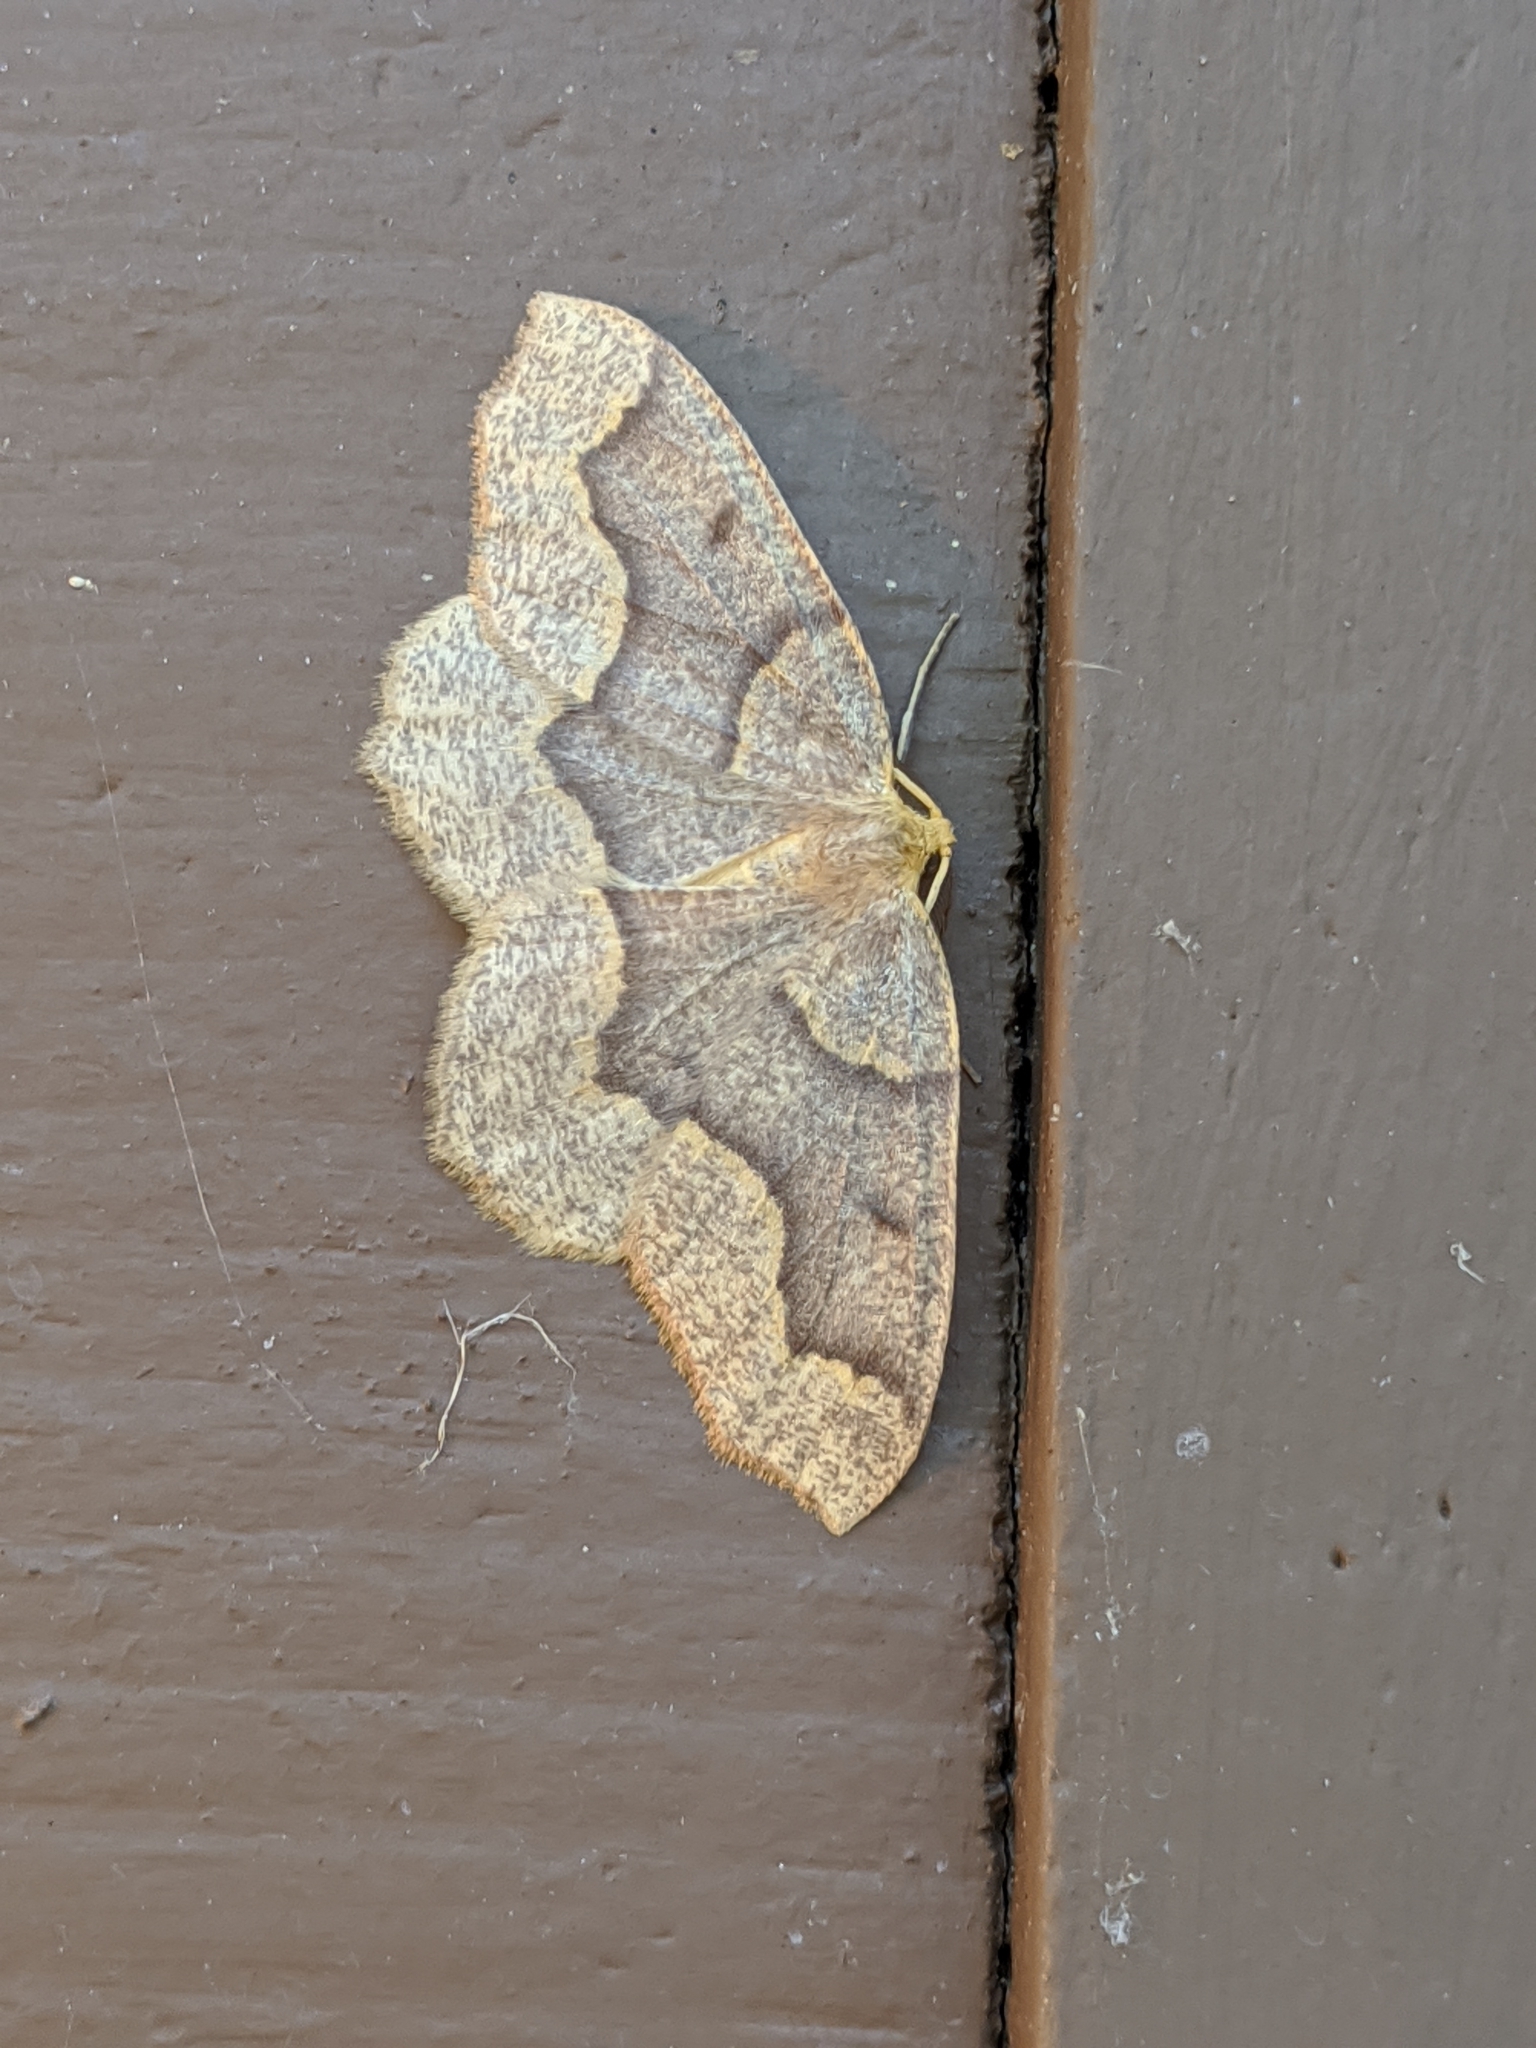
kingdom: Animalia
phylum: Arthropoda
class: Insecta
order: Lepidoptera
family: Geometridae
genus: Lambdina
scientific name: Lambdina fiscellaria
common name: Hemlock looper
